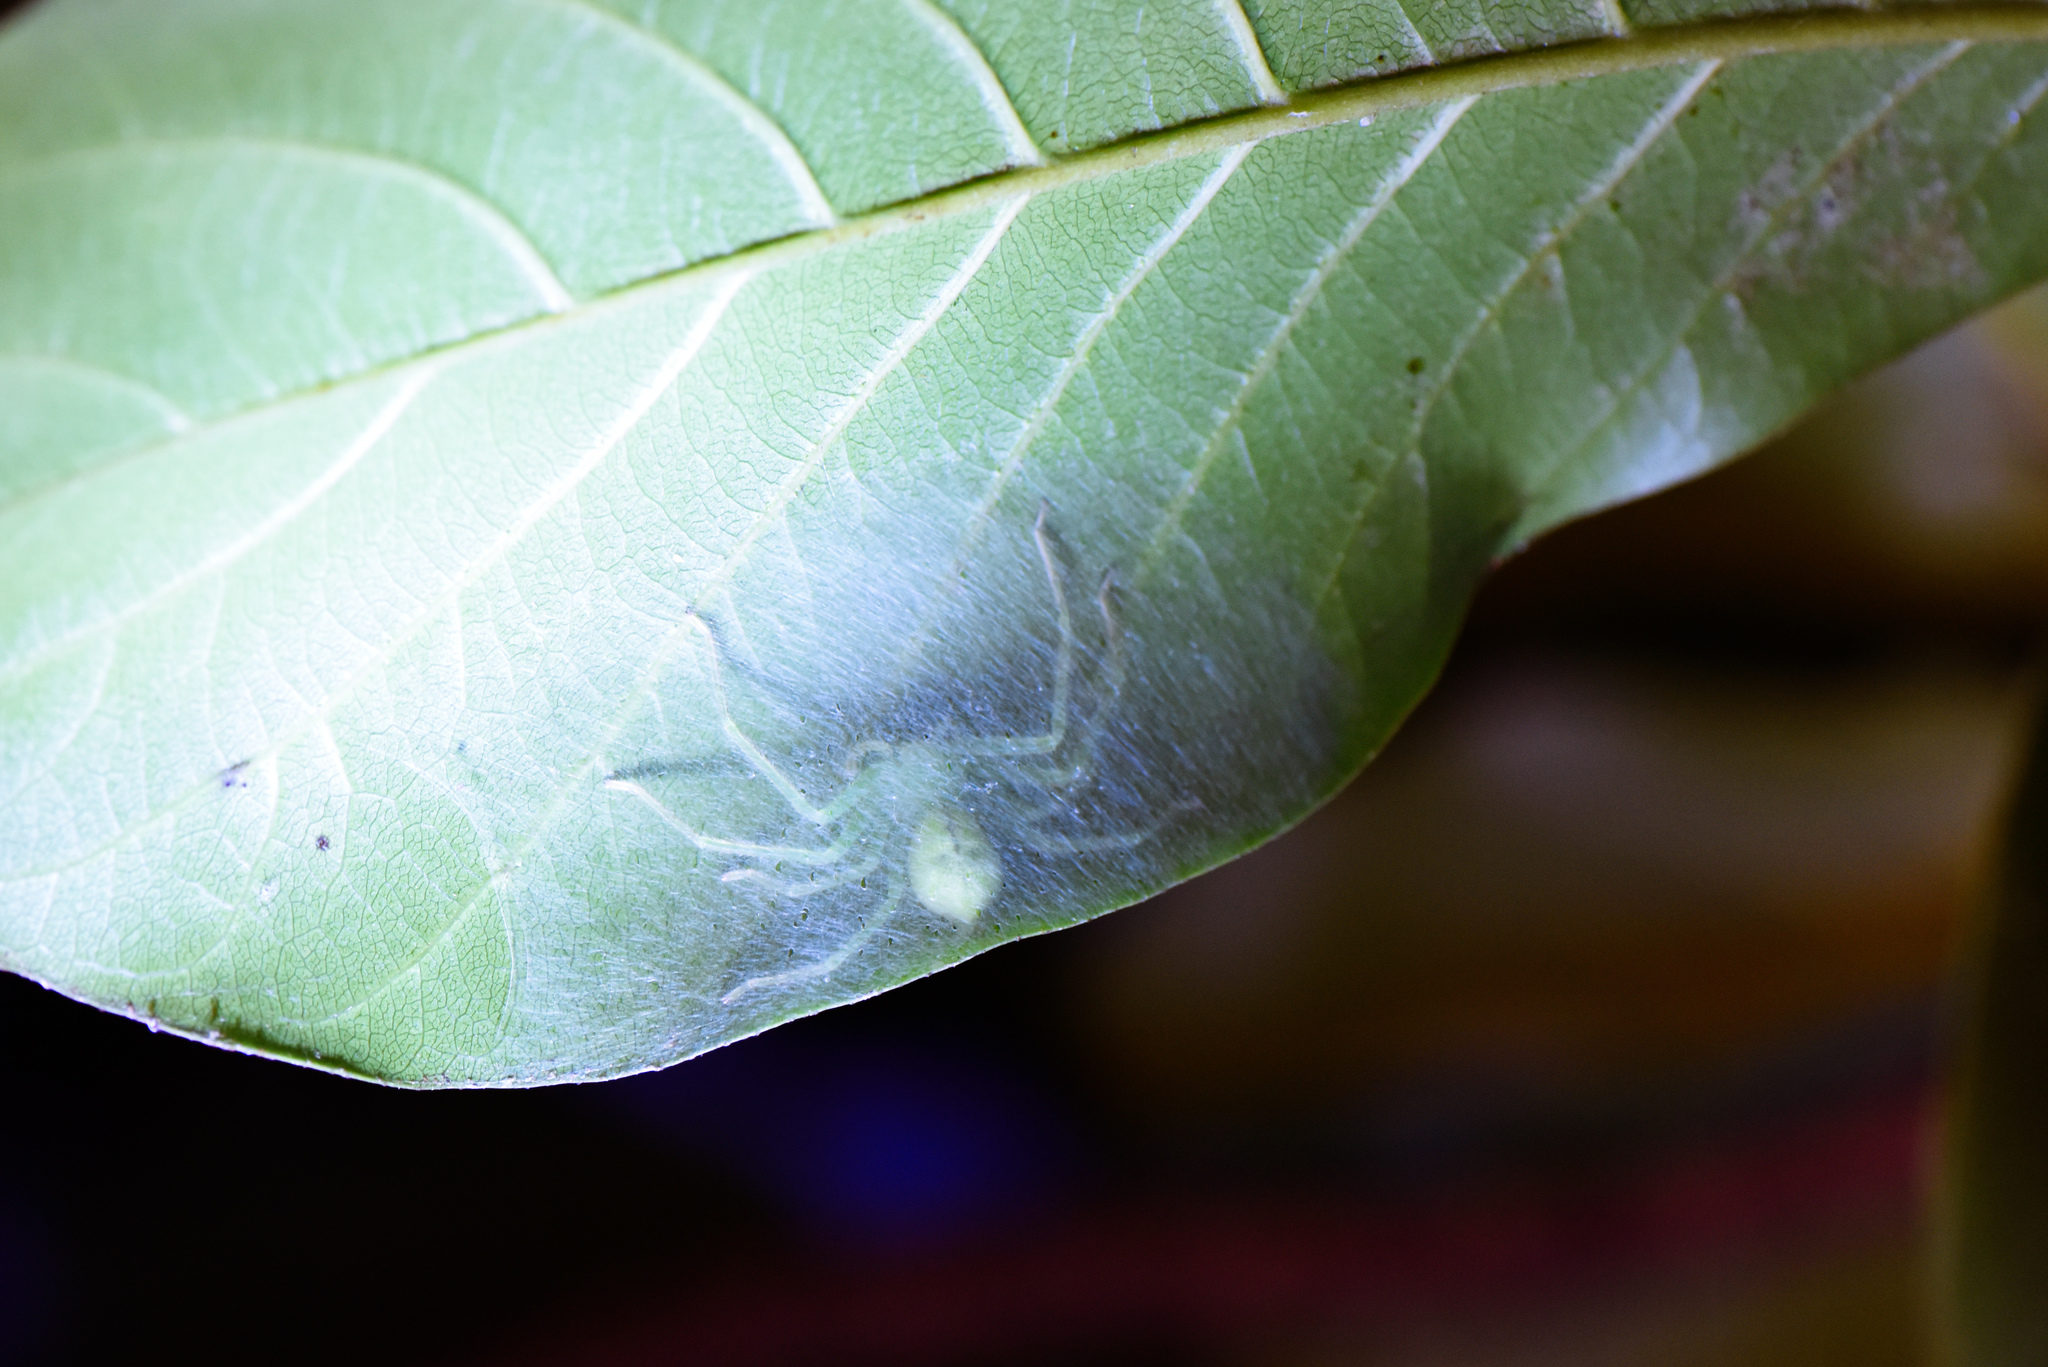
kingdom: Animalia
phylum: Arthropoda
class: Arachnida
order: Araneae
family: Sparassidae
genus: Gnathopalystes
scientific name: Gnathopalystes taiwanensis
